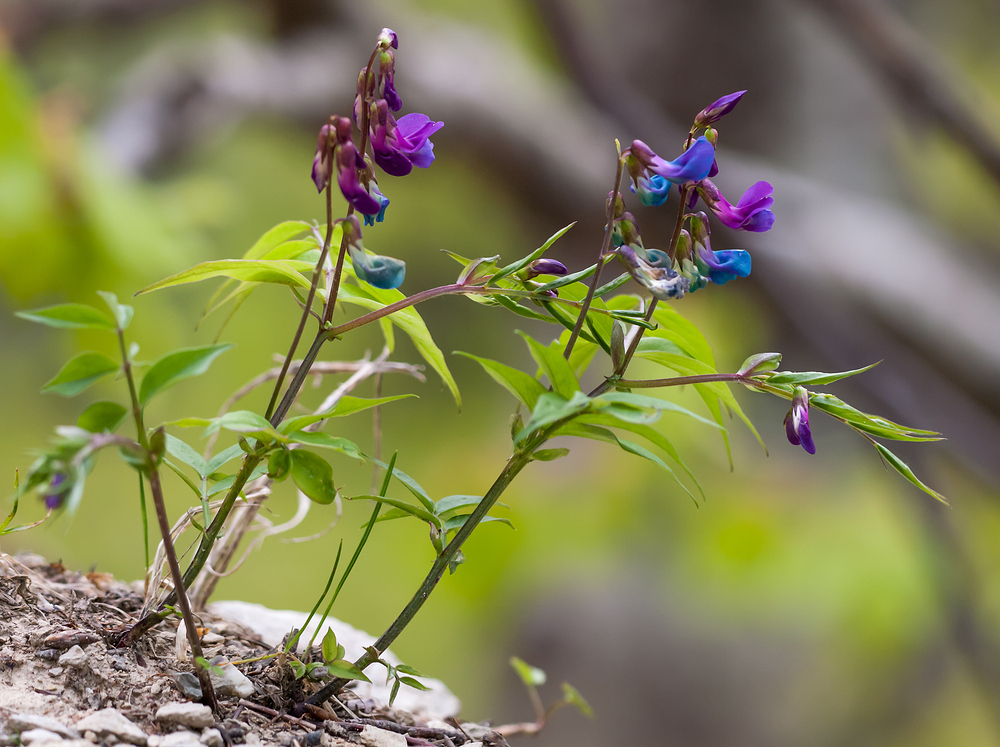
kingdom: Plantae
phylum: Tracheophyta
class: Magnoliopsida
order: Fabales
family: Fabaceae
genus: Lathyrus
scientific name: Lathyrus vernus
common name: Spring pea
